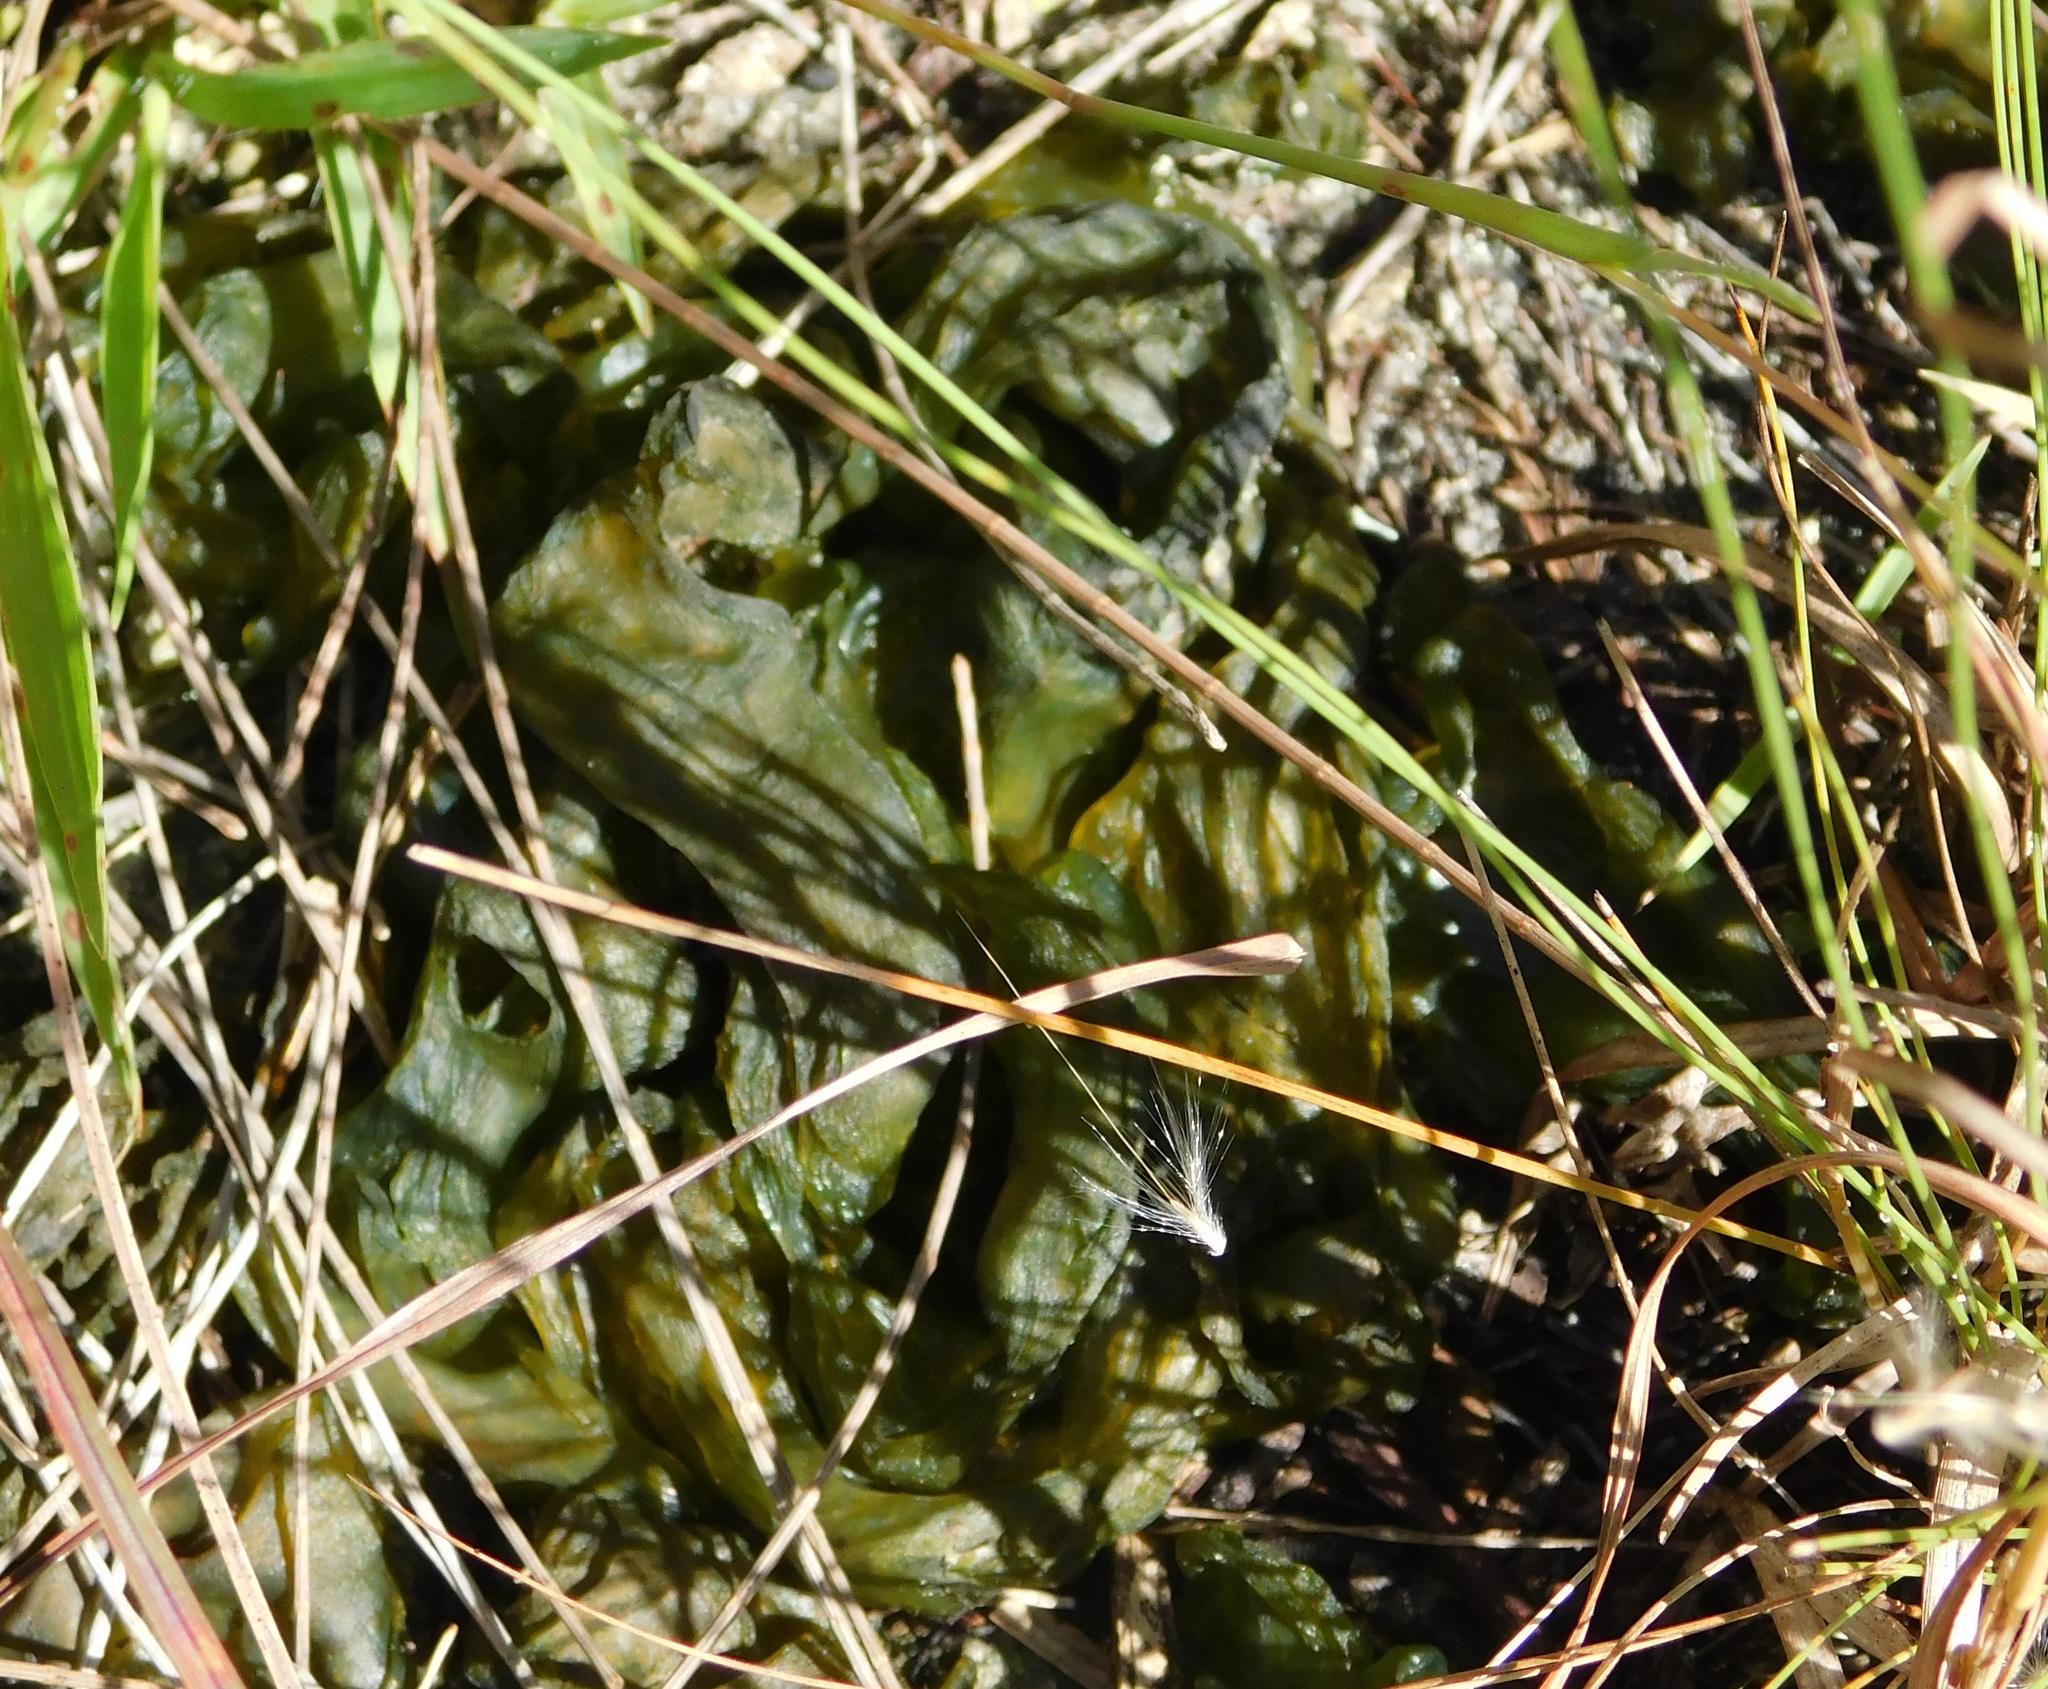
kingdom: Bacteria
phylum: Cyanobacteria
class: Cyanobacteriia
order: Cyanobacteriales
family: Nostocaceae
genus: Nostoc
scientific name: Nostoc commune
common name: Star jelly
